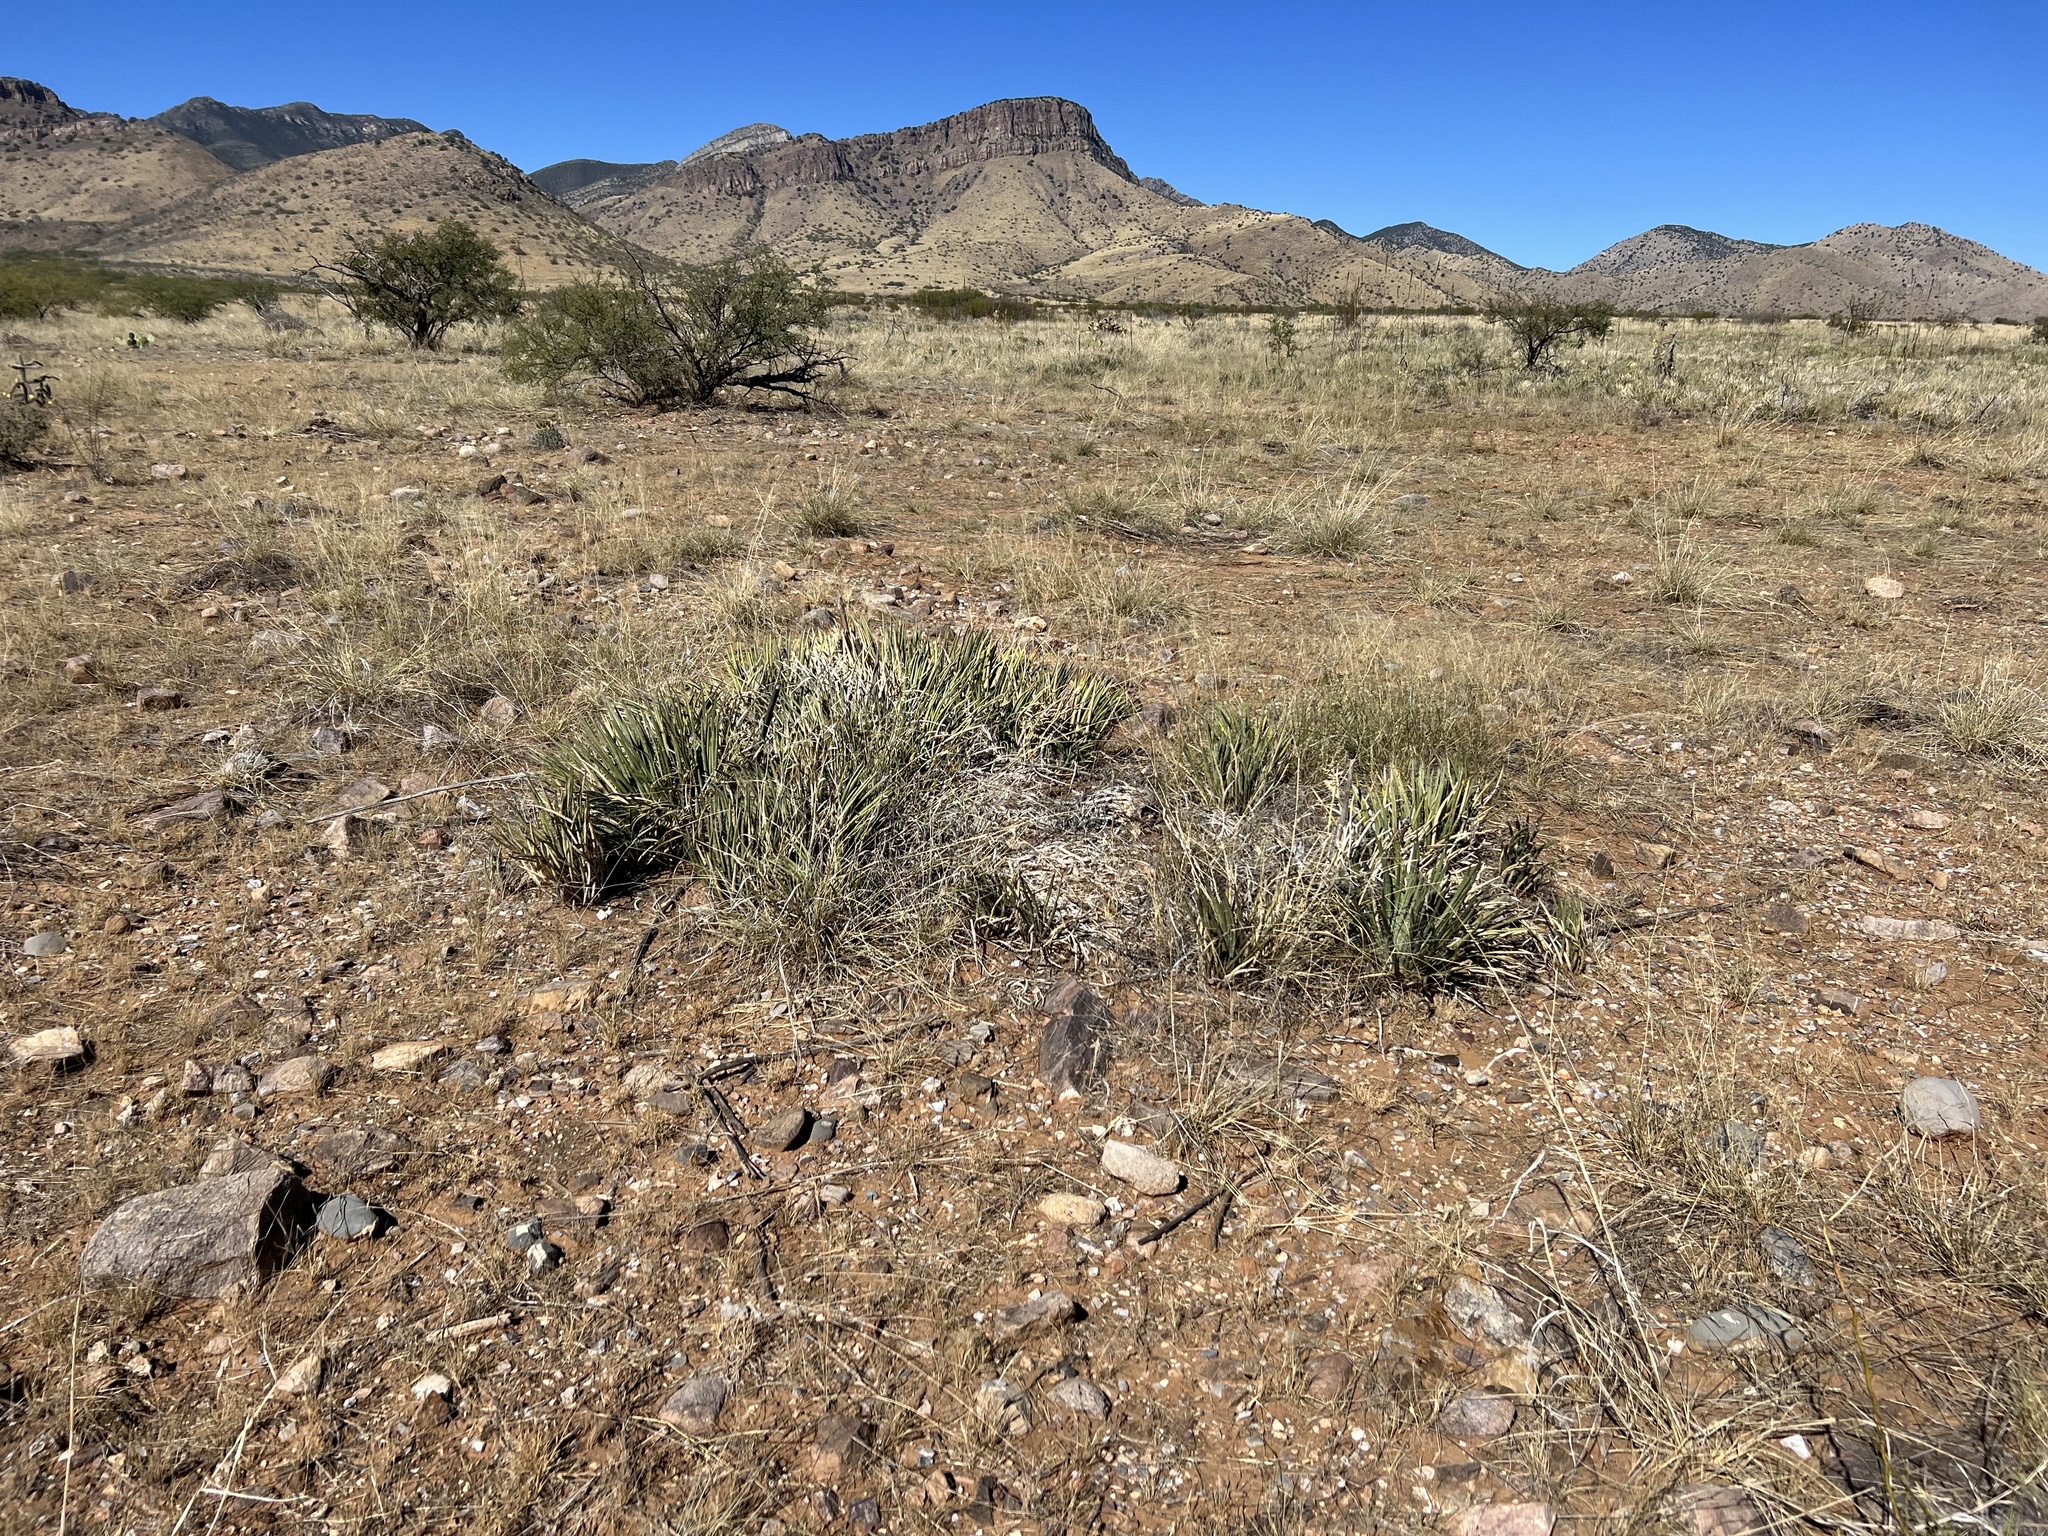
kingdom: Plantae
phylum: Tracheophyta
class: Liliopsida
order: Asparagales
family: Asparagaceae
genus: Agave
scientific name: Agave schottii
